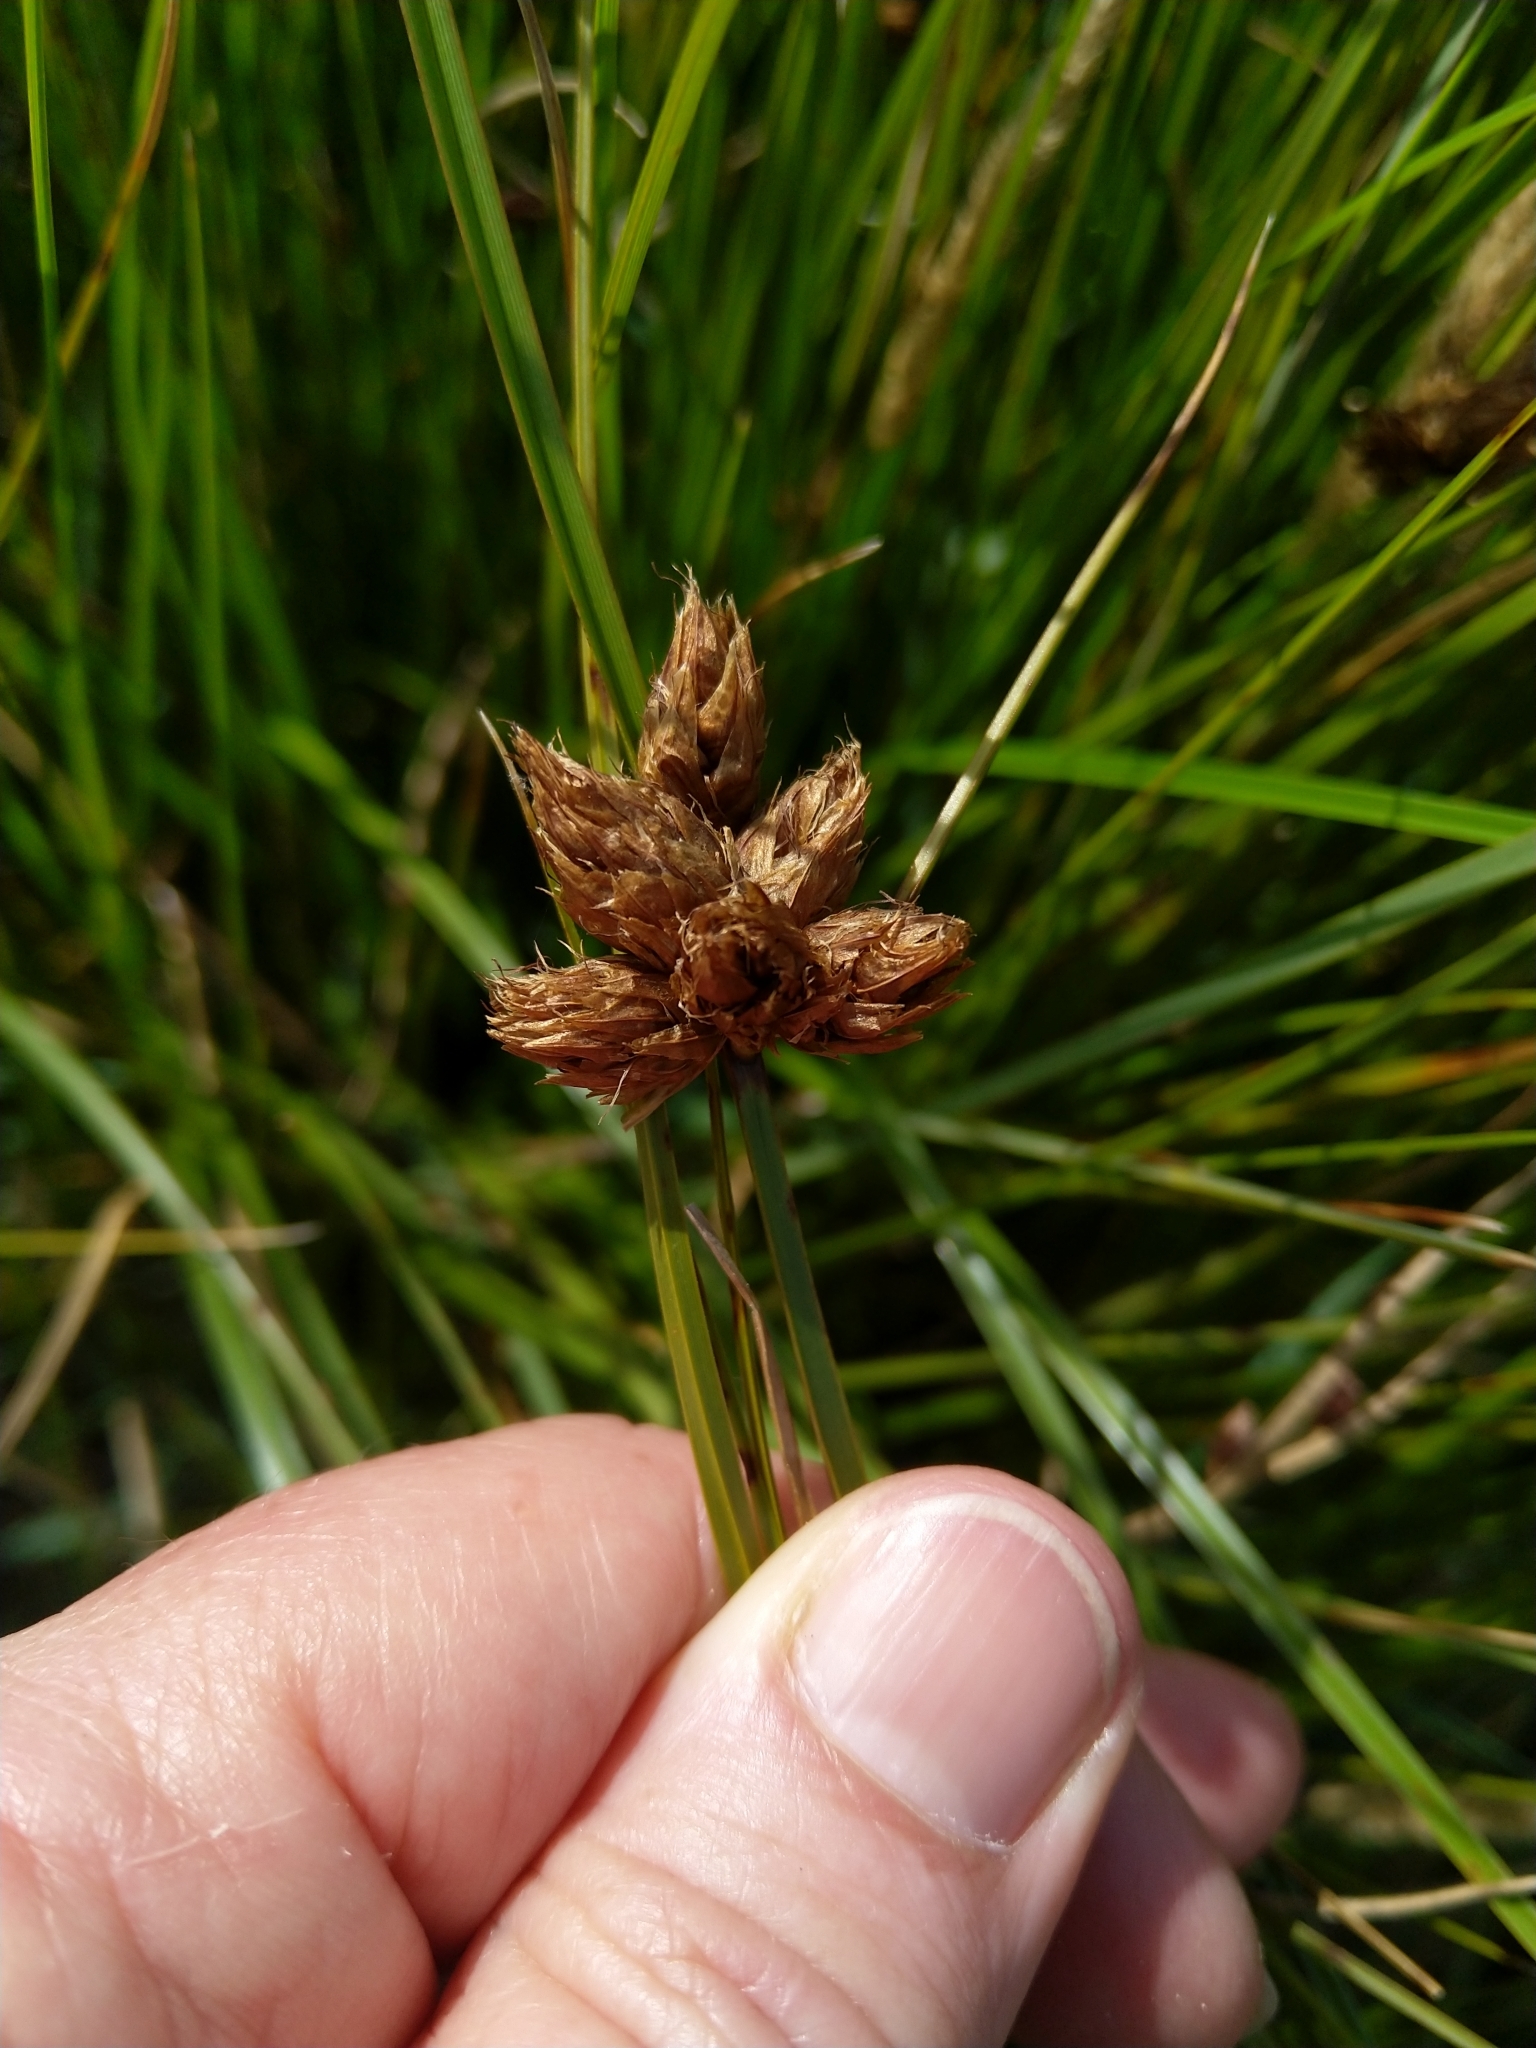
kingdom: Plantae
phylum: Tracheophyta
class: Liliopsida
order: Poales
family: Cyperaceae
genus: Bolboschoenus
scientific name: Bolboschoenus caldwellii
